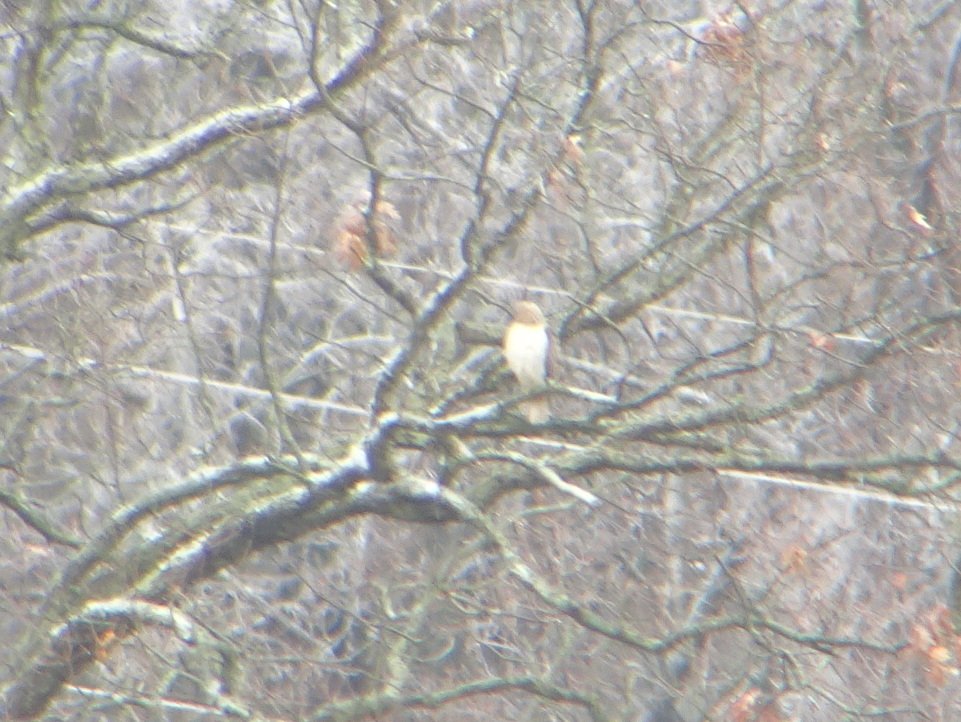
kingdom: Animalia
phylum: Chordata
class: Aves
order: Accipitriformes
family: Accipitridae
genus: Buteo
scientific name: Buteo jamaicensis
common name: Red-tailed hawk
